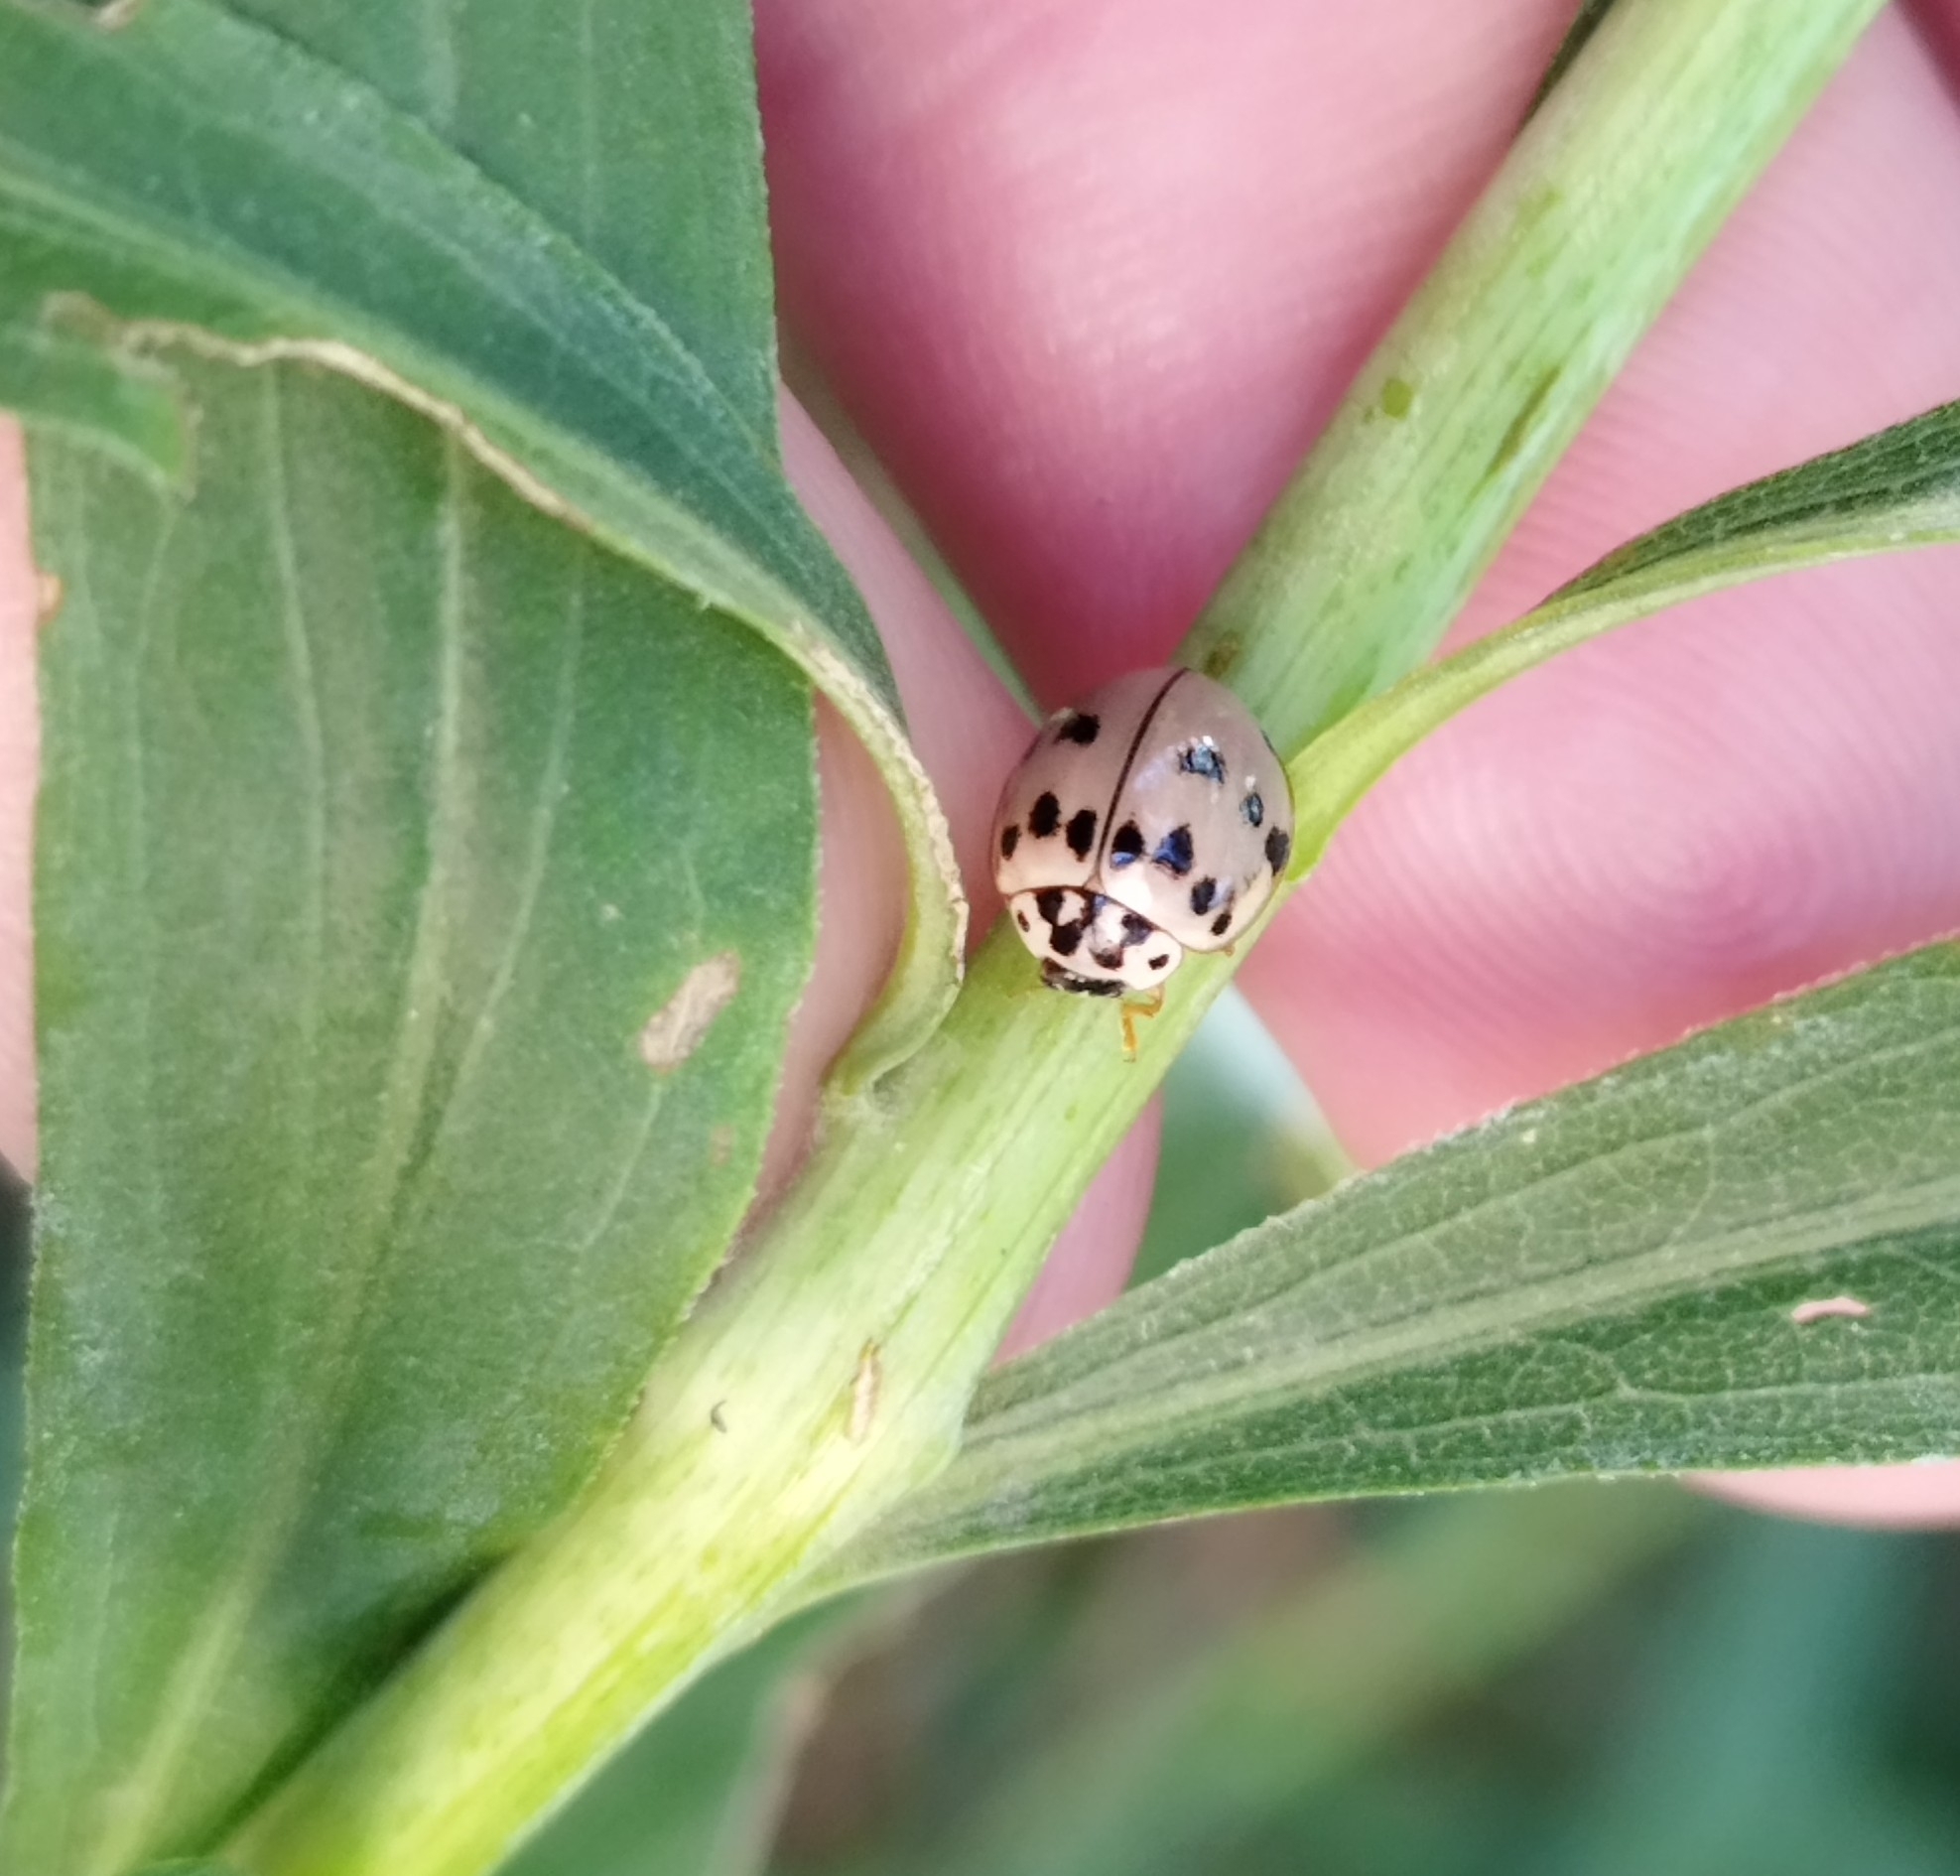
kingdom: Animalia
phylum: Arthropoda
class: Insecta
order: Coleoptera
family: Coccinellidae
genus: Olla
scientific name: Olla v-nigrum
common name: Ashy gray lady beetle
